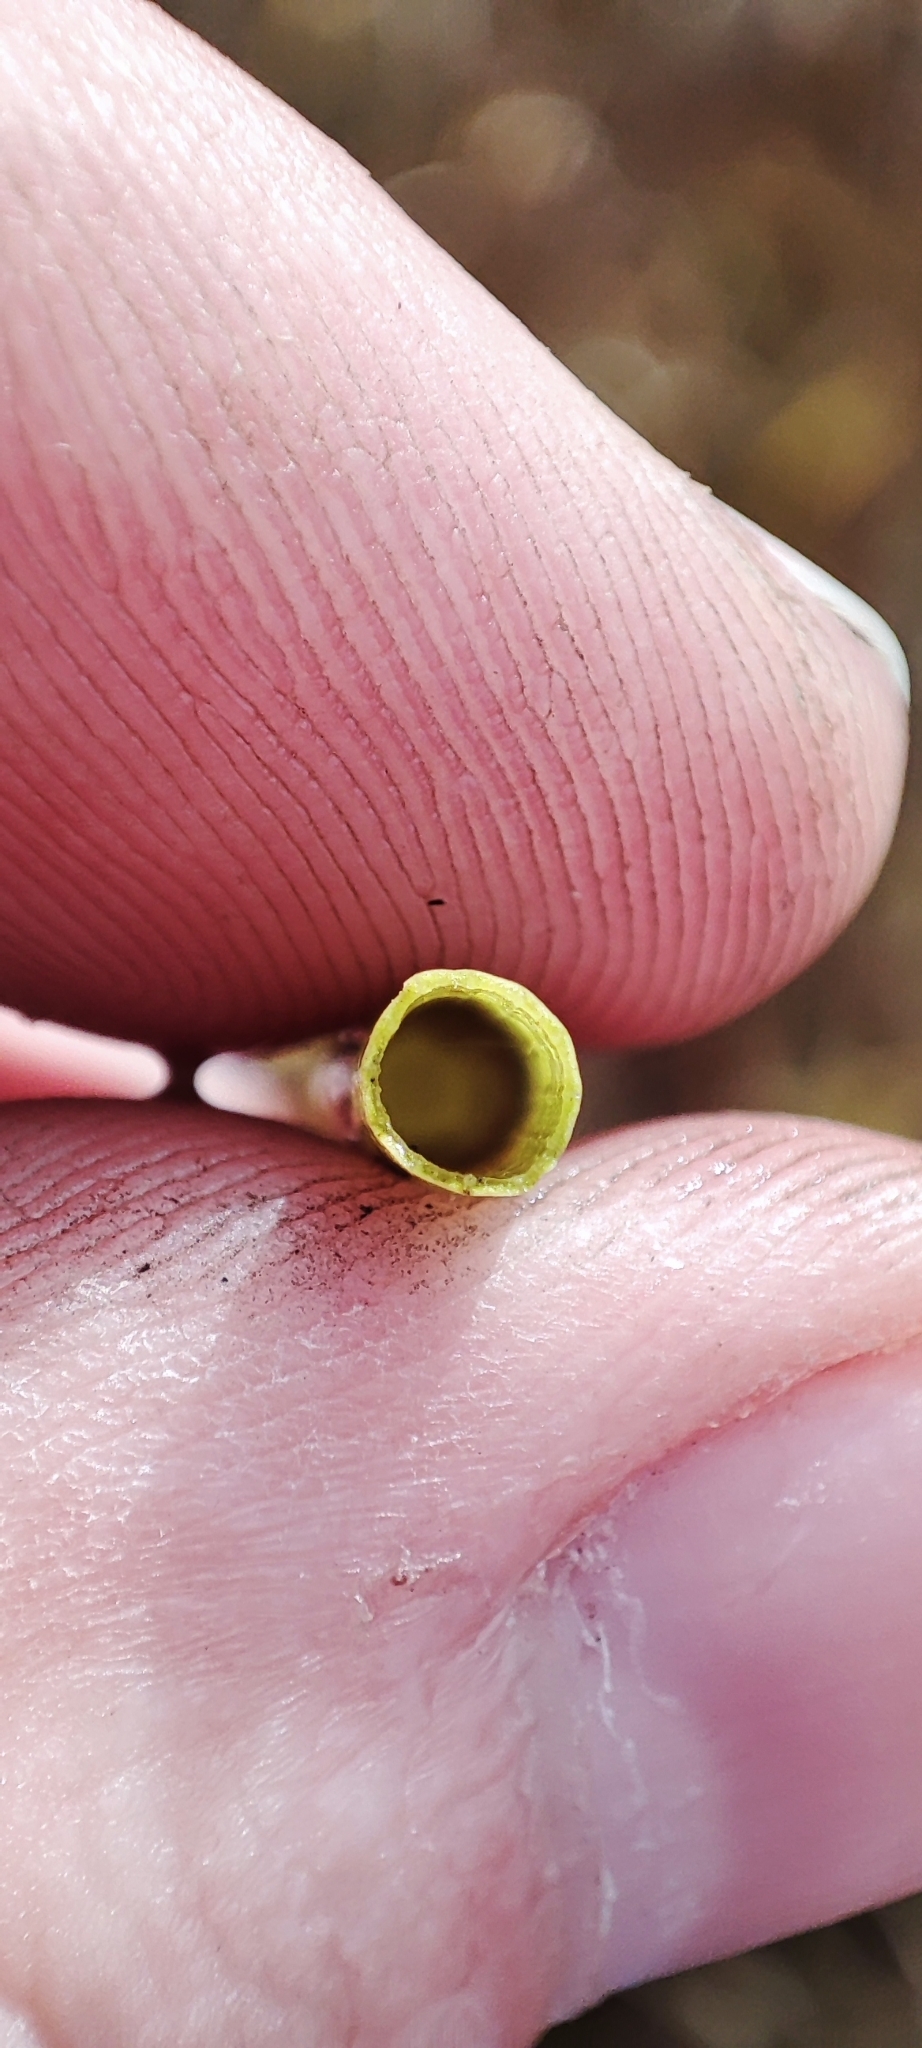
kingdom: Plantae
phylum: Tracheophyta
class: Polypodiopsida
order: Equisetales
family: Equisetaceae
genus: Equisetum
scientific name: Equisetum fluviatile
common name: Water horsetail
